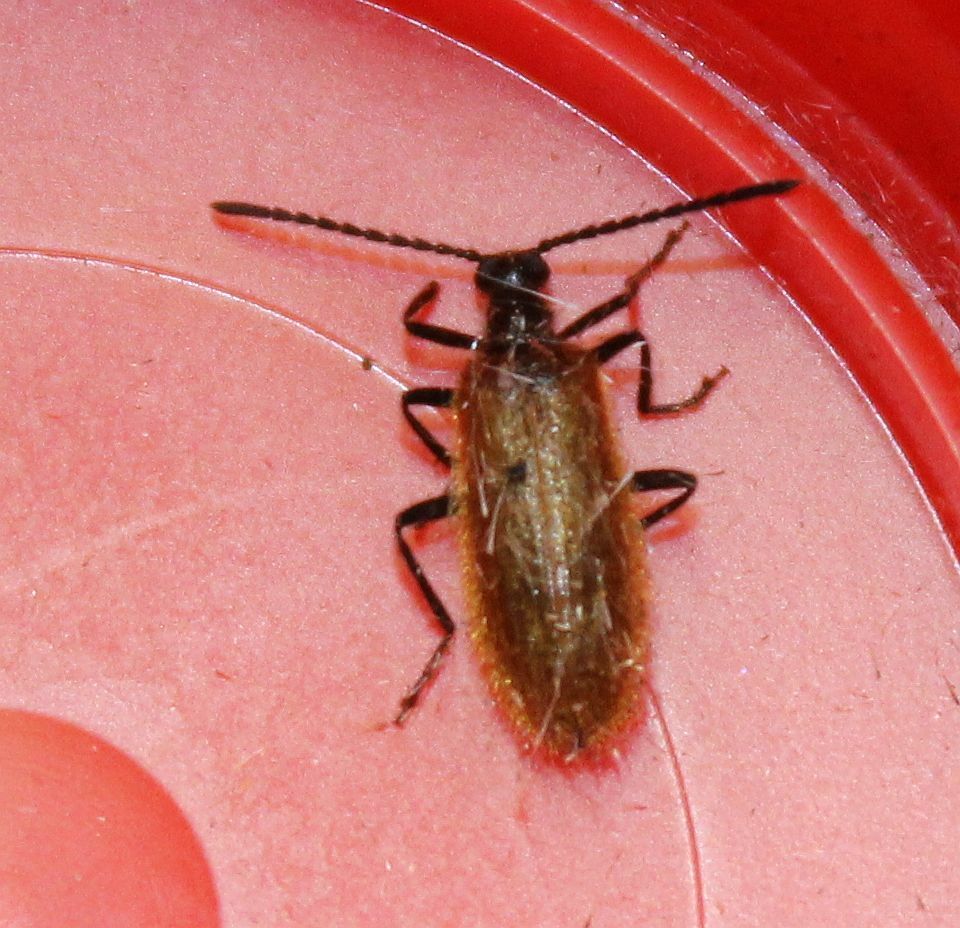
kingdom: Animalia
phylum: Arthropoda
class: Insecta
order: Coleoptera
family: Tenebrionidae
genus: Lagria
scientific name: Lagria hirta
